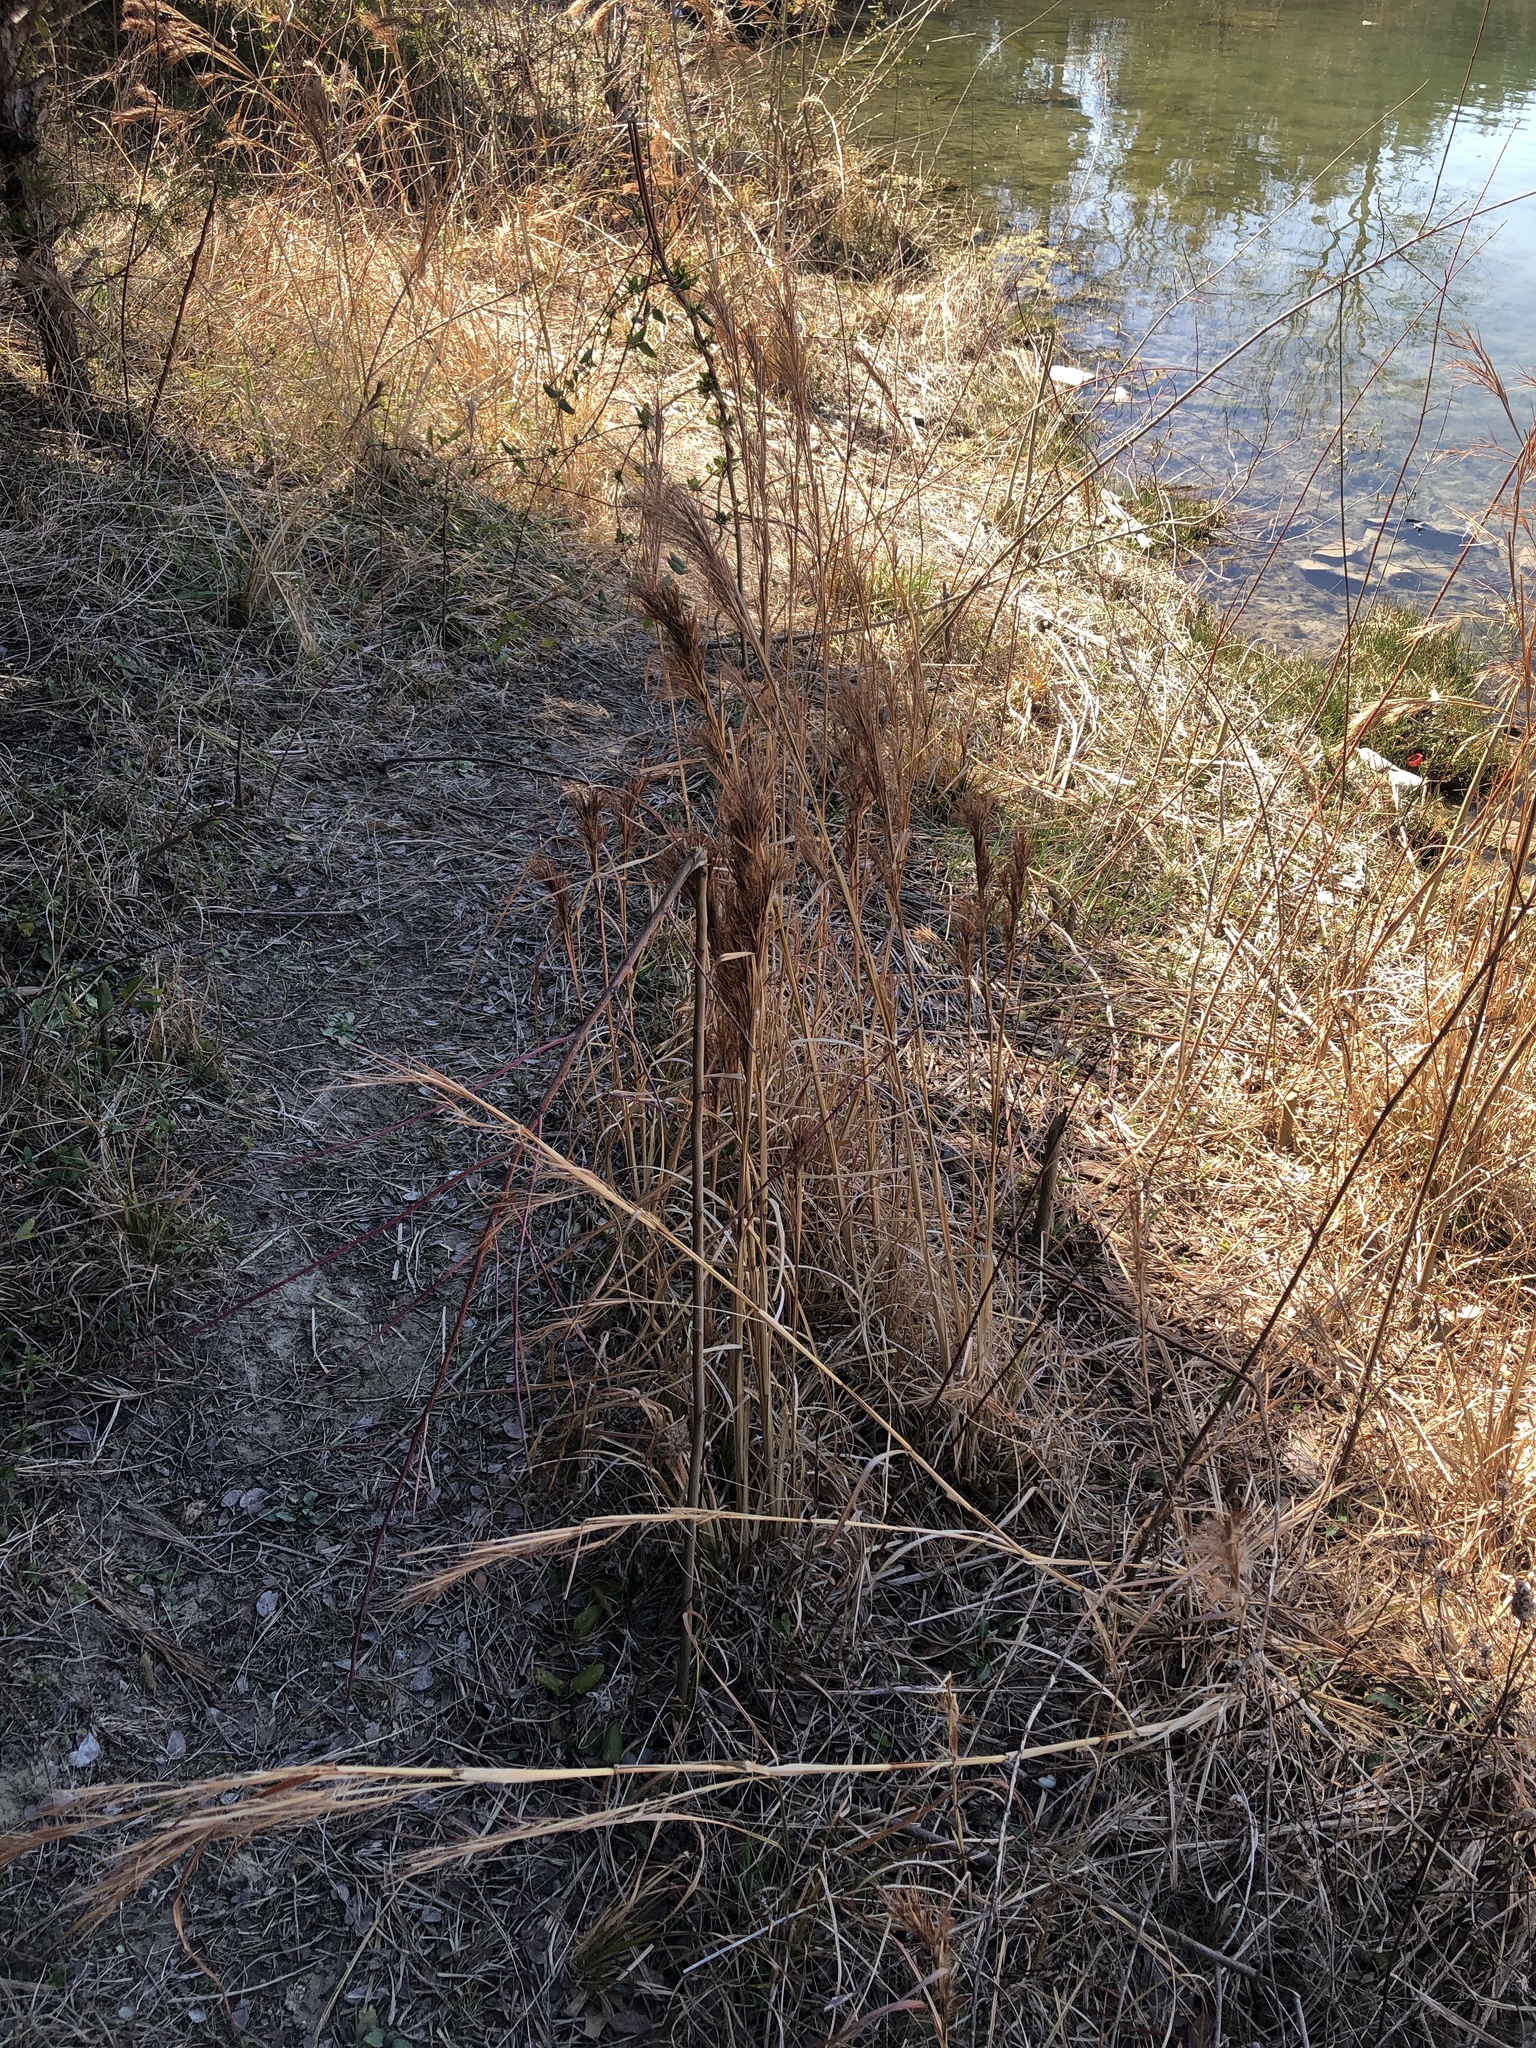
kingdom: Plantae
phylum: Tracheophyta
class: Liliopsida
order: Poales
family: Poaceae
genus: Andropogon
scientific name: Andropogon tenuispatheus
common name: Bushy bluestem
